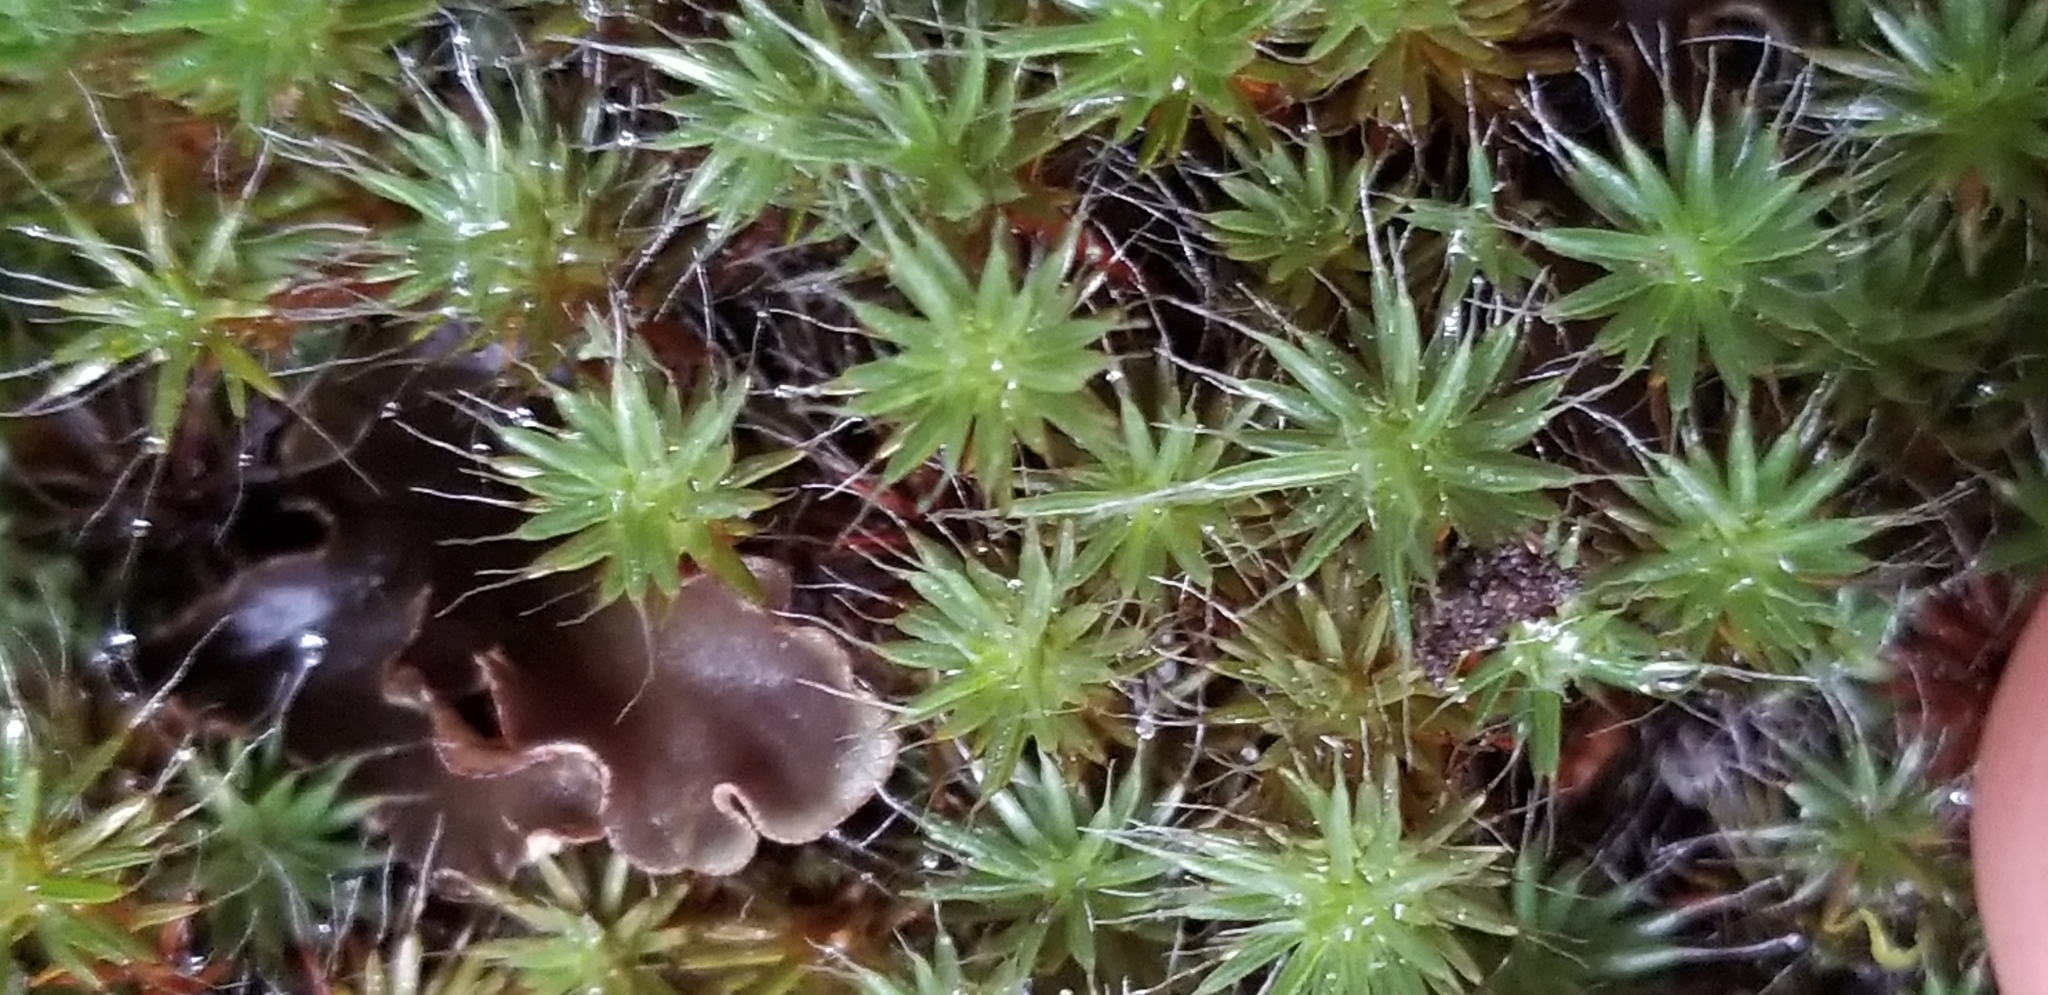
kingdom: Plantae
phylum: Bryophyta
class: Polytrichopsida
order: Polytrichales
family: Polytrichaceae
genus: Polytrichum
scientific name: Polytrichum piliferum
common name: Bristly haircap
